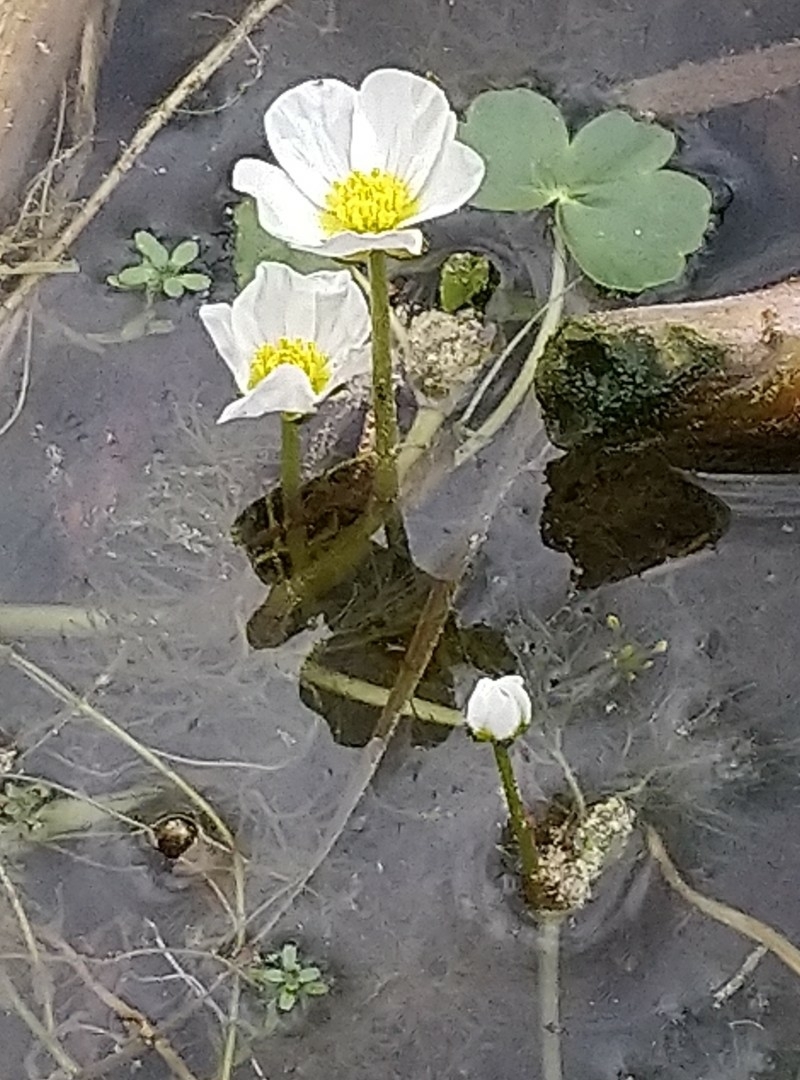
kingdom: Plantae
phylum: Tracheophyta
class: Magnoliopsida
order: Ranunculales
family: Ranunculaceae
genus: Ranunculus
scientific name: Ranunculus peltatus
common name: Pond water-crowfoot
